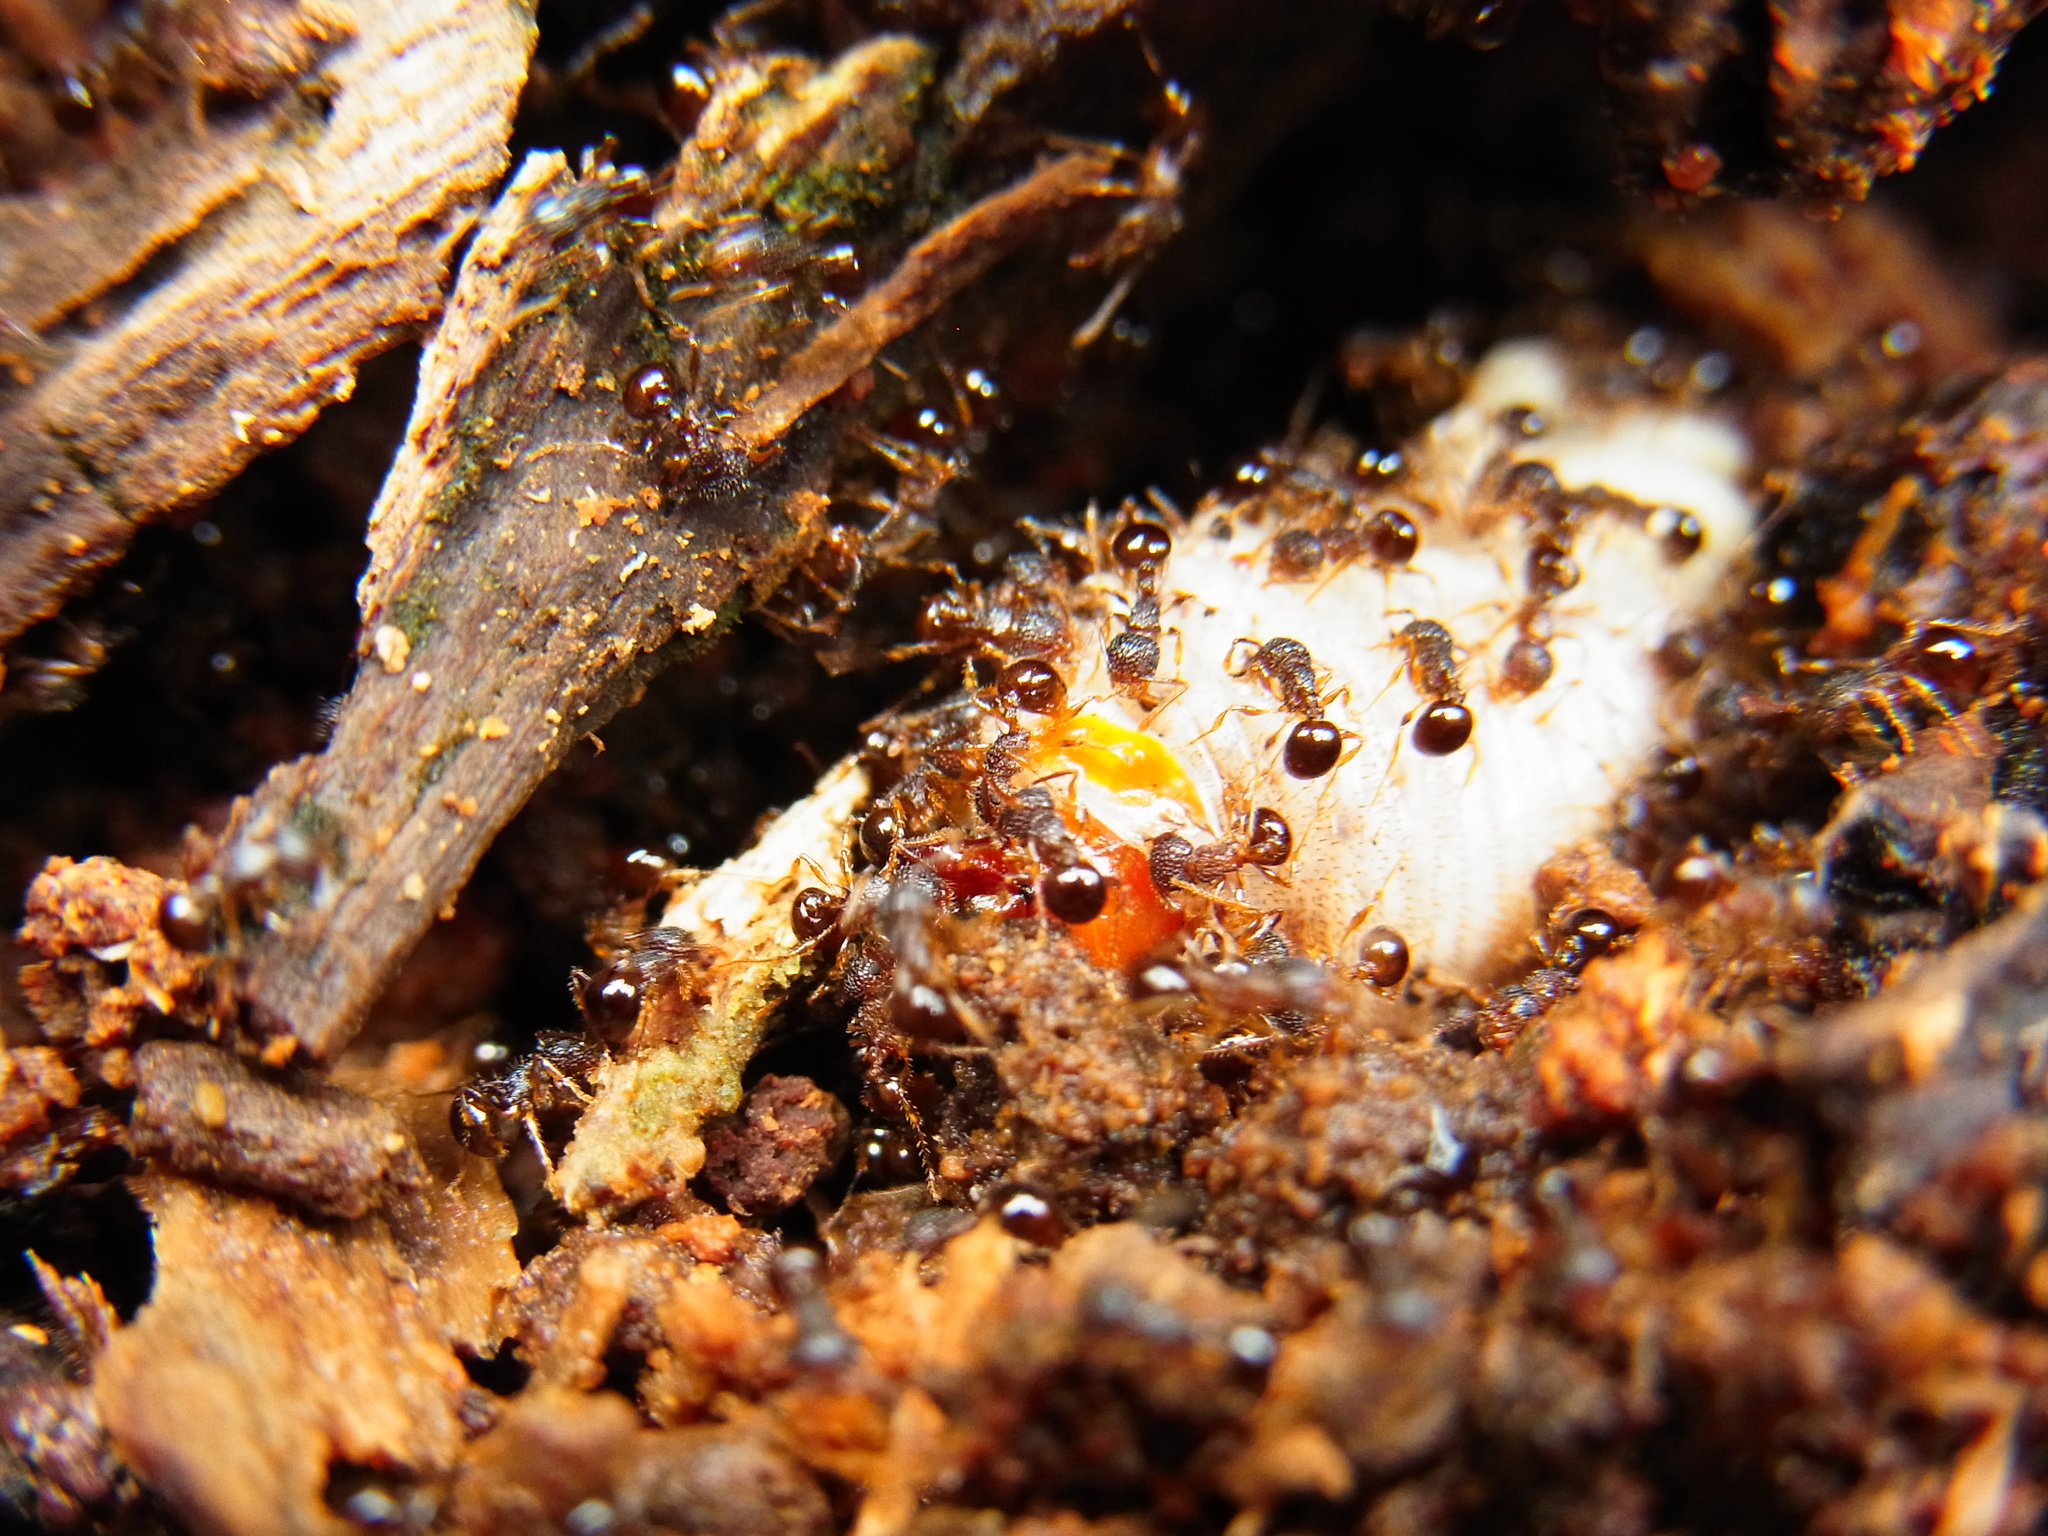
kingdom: Animalia
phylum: Arthropoda
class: Insecta
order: Hymenoptera
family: Formicidae
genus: Pristomyrmex
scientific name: Pristomyrmex punctatus
